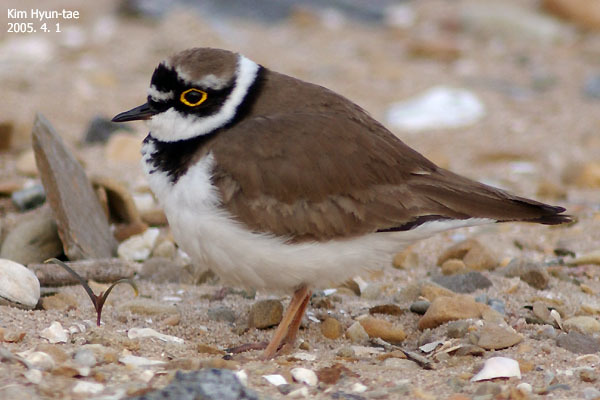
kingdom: Animalia
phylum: Chordata
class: Aves
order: Charadriiformes
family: Charadriidae
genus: Charadrius
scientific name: Charadrius dubius
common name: Little ringed plover
